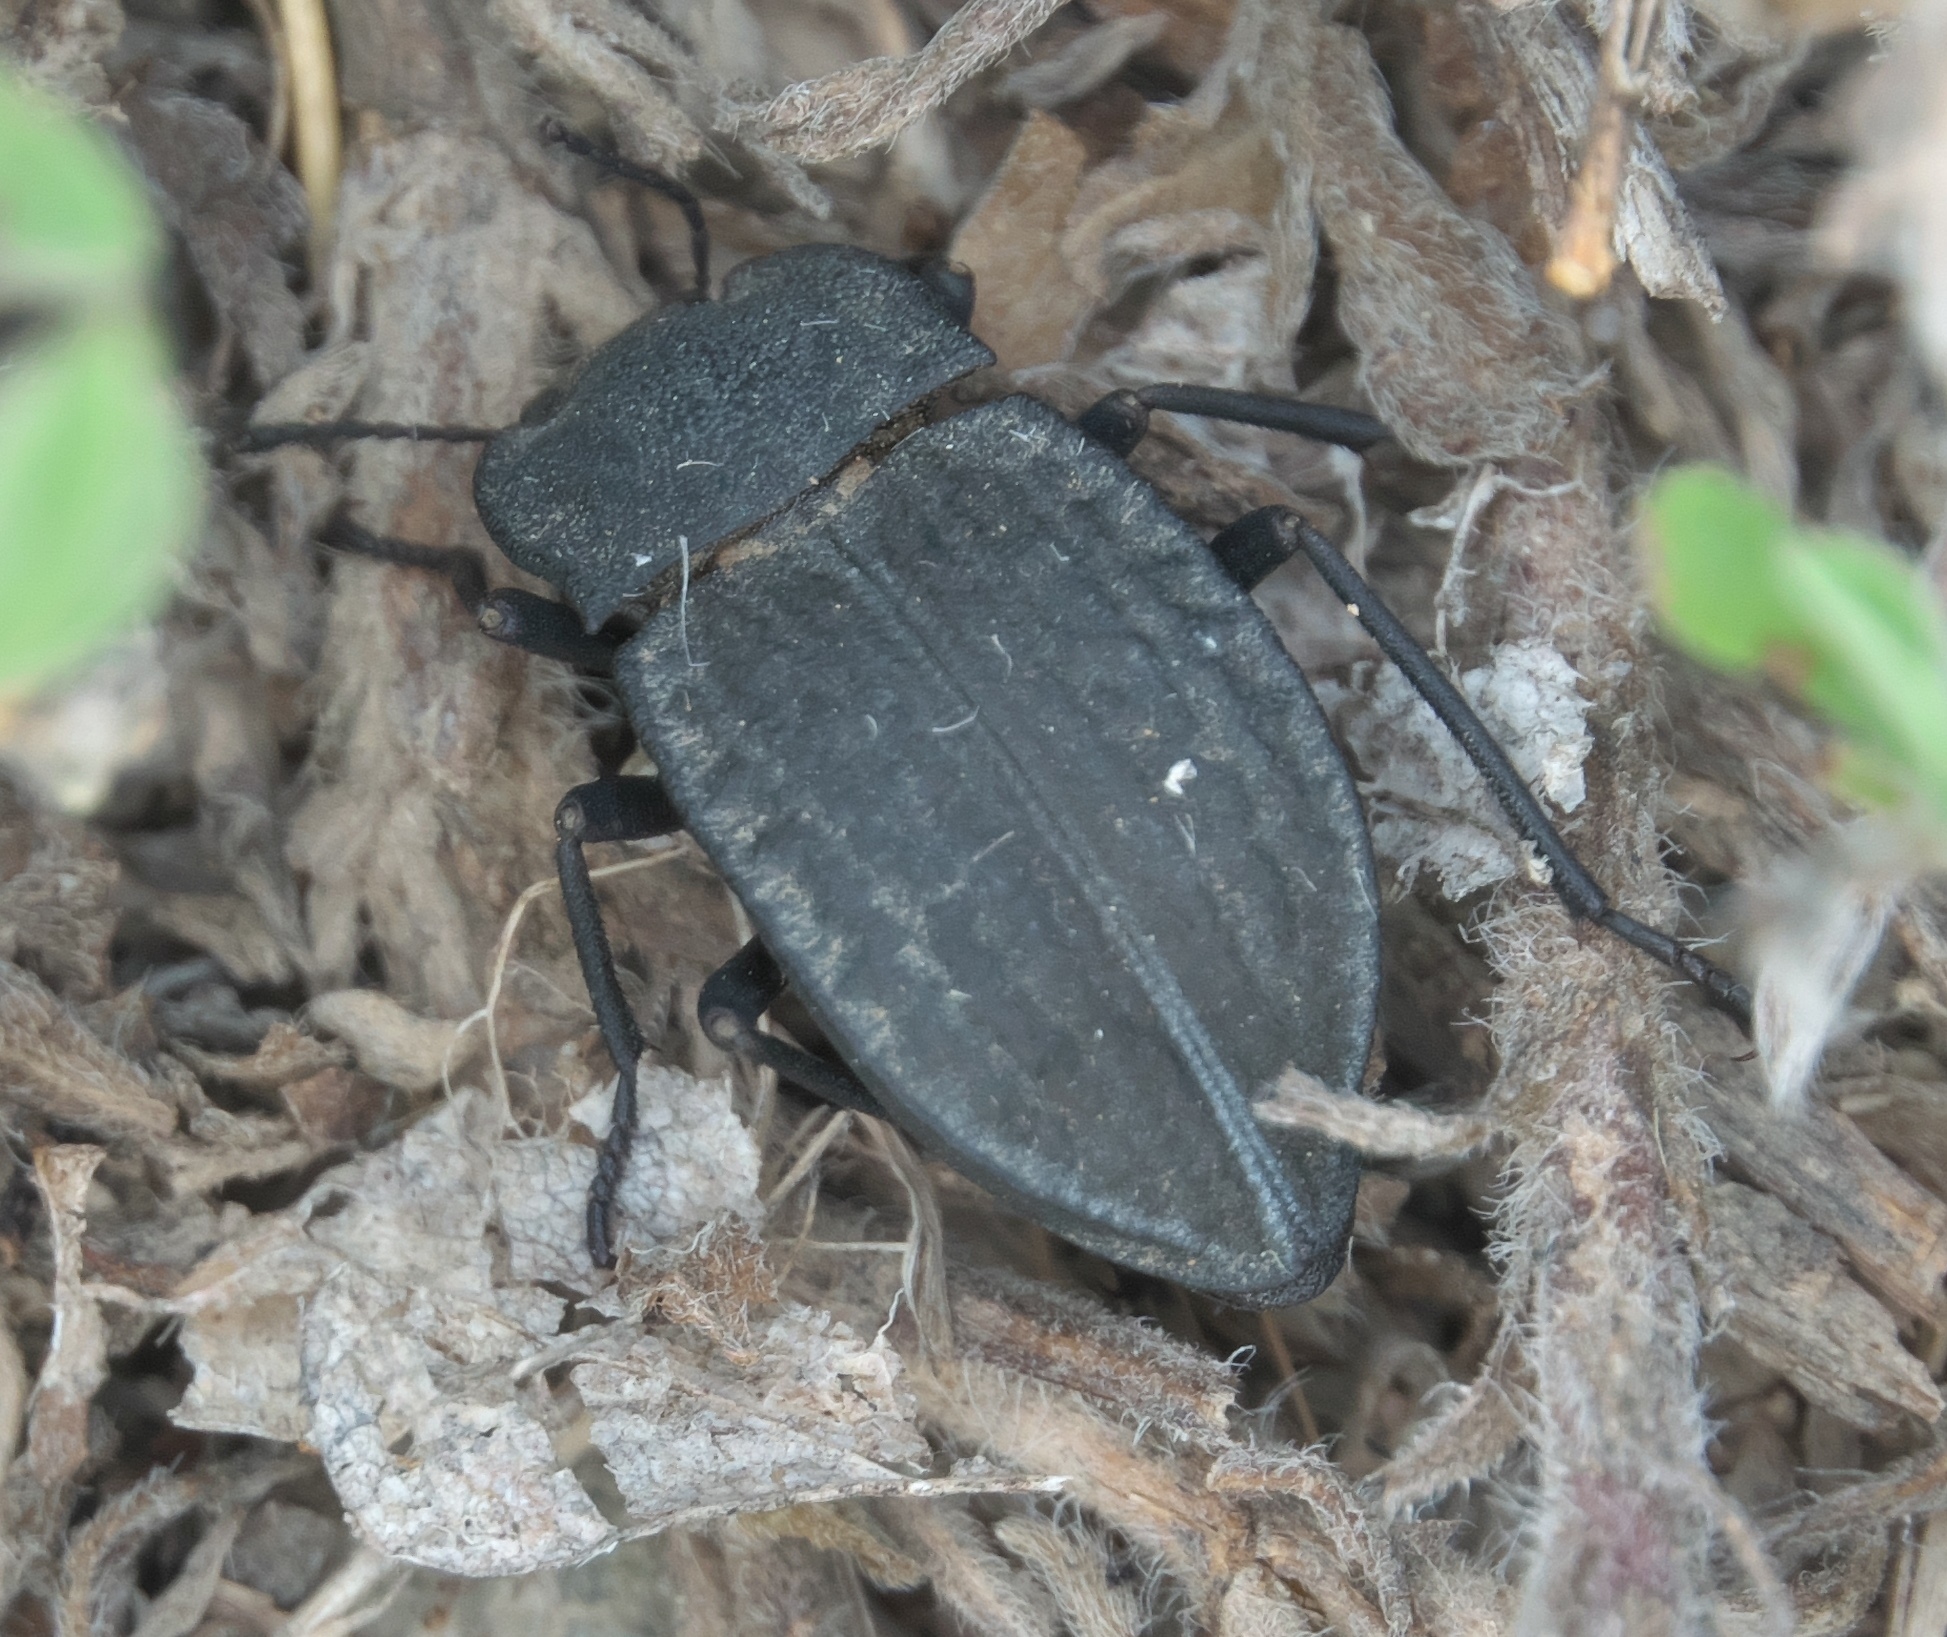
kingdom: Animalia
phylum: Arthropoda
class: Insecta
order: Coleoptera
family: Tenebrionidae
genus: Stenomorpha
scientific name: Stenomorpha opaca
